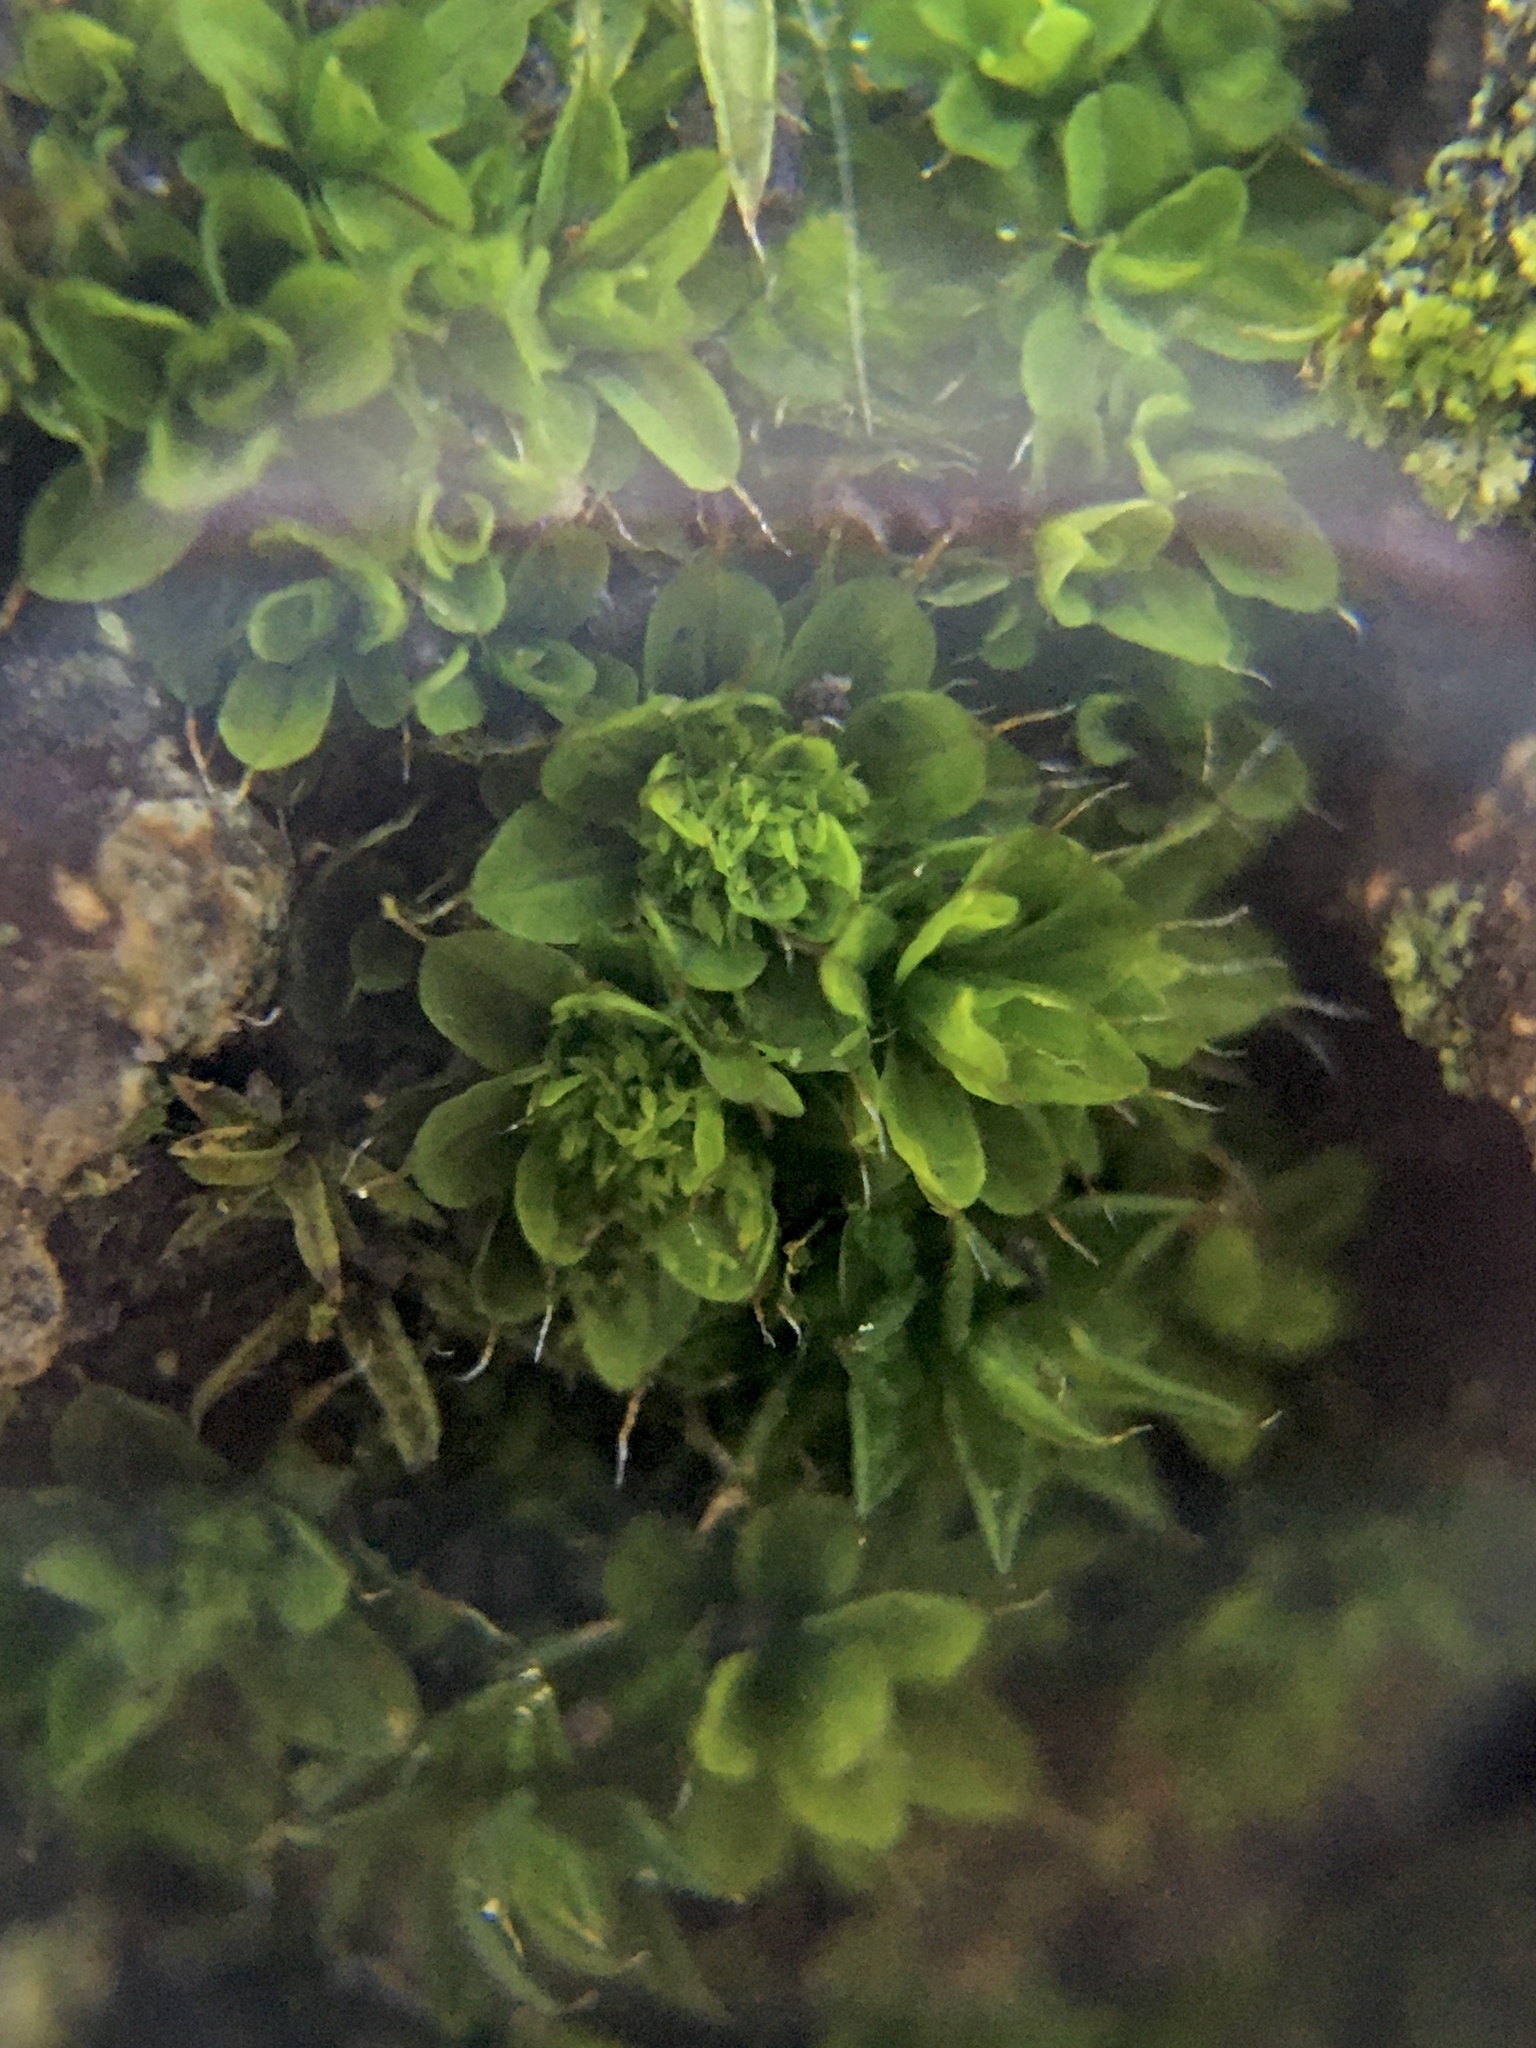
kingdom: Plantae
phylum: Bryophyta
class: Bryopsida
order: Pottiales
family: Pottiaceae
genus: Syntrichia
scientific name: Syntrichia pagorum
